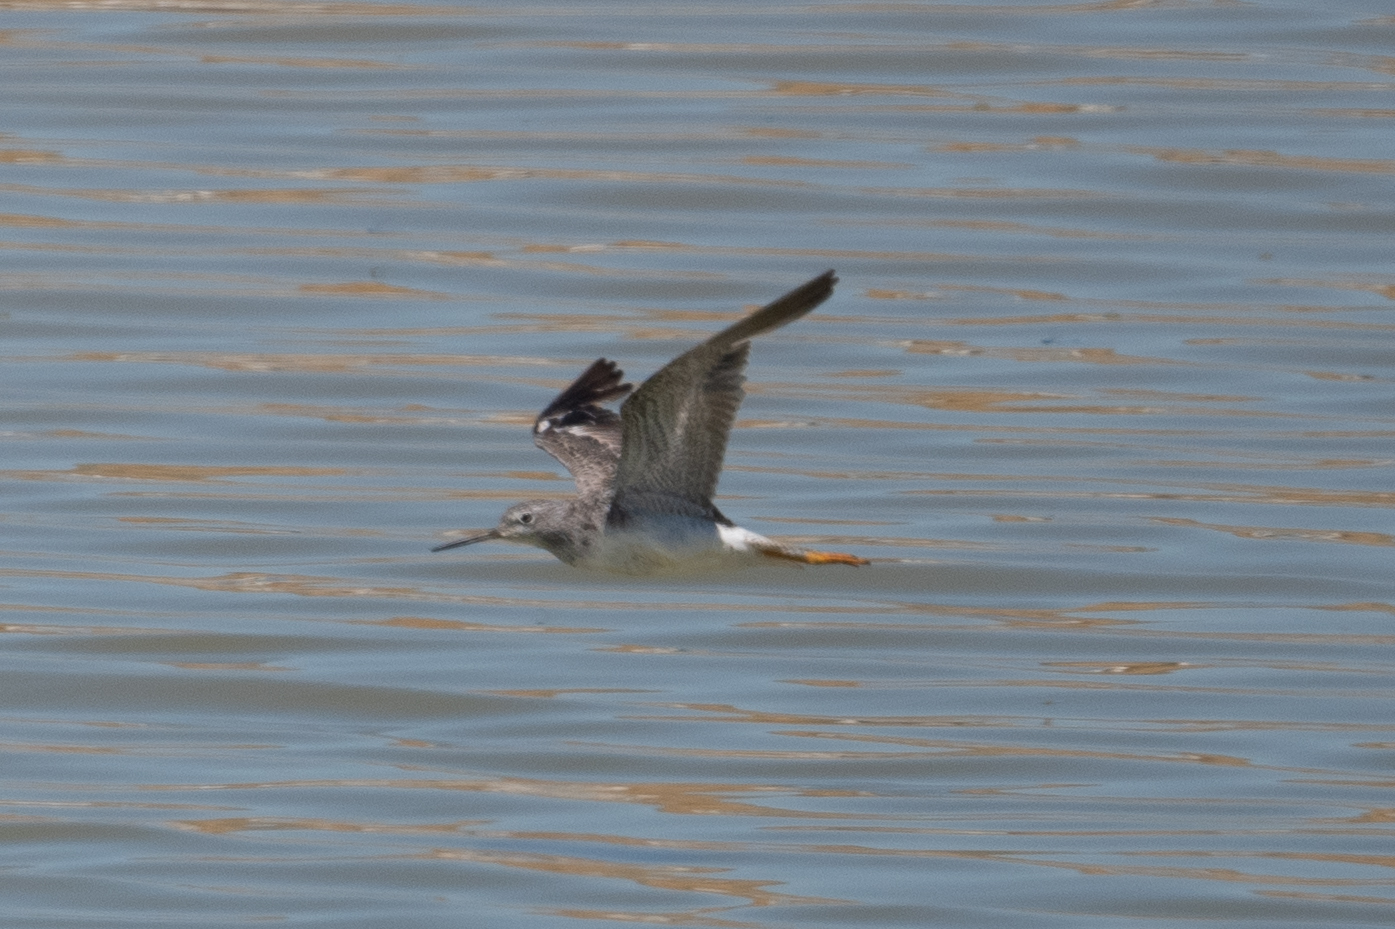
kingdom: Animalia
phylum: Chordata
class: Aves
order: Charadriiformes
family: Scolopacidae
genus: Tringa
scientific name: Tringa melanoleuca
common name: Greater yellowlegs
